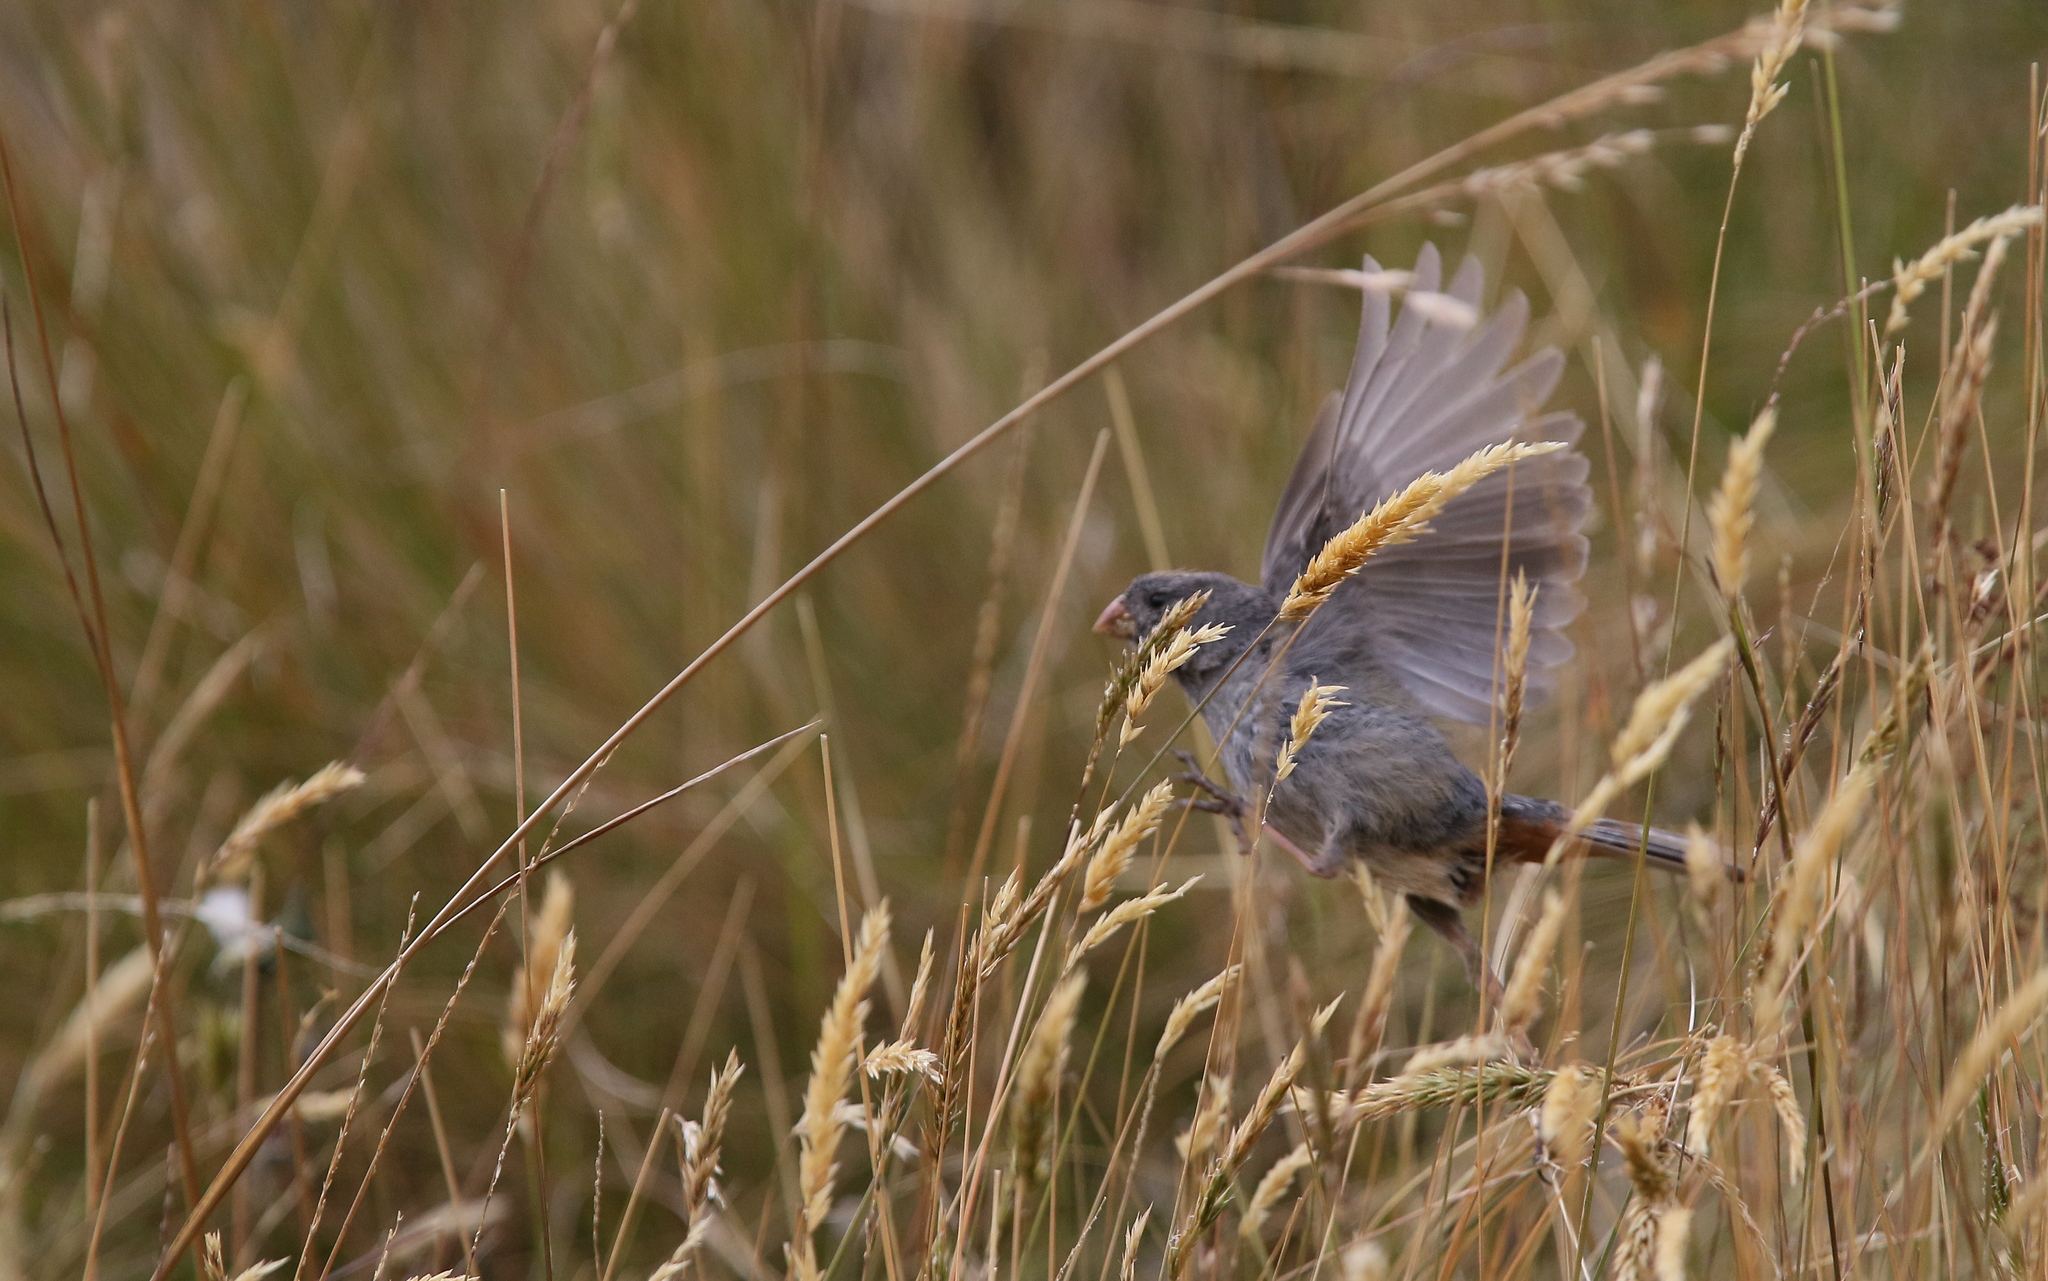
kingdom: Animalia
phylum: Chordata
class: Aves
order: Passeriformes
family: Thraupidae
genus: Catamenia
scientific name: Catamenia inornata
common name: Plain-colored seedeater
